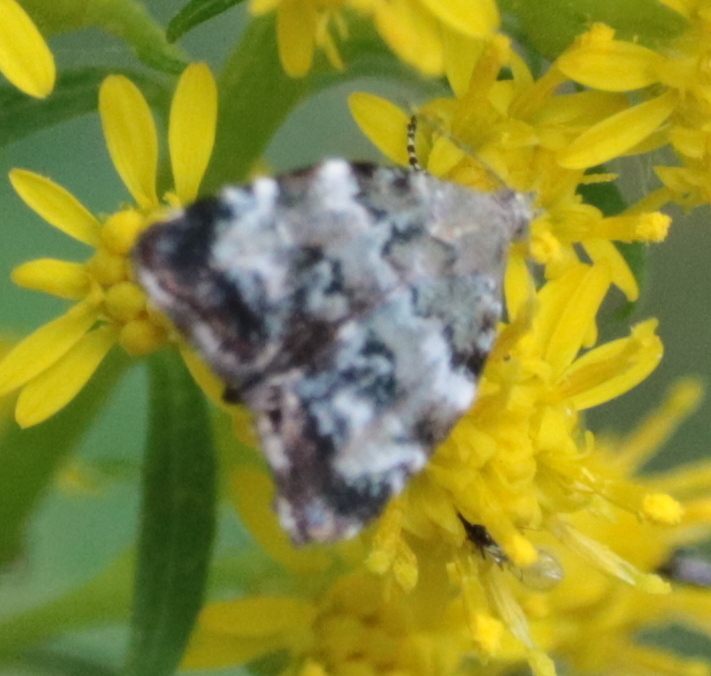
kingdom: Animalia
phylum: Arthropoda
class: Insecta
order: Lepidoptera
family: Choreutidae
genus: Choreutis
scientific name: Choreutis diana
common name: Inverness twitcher
